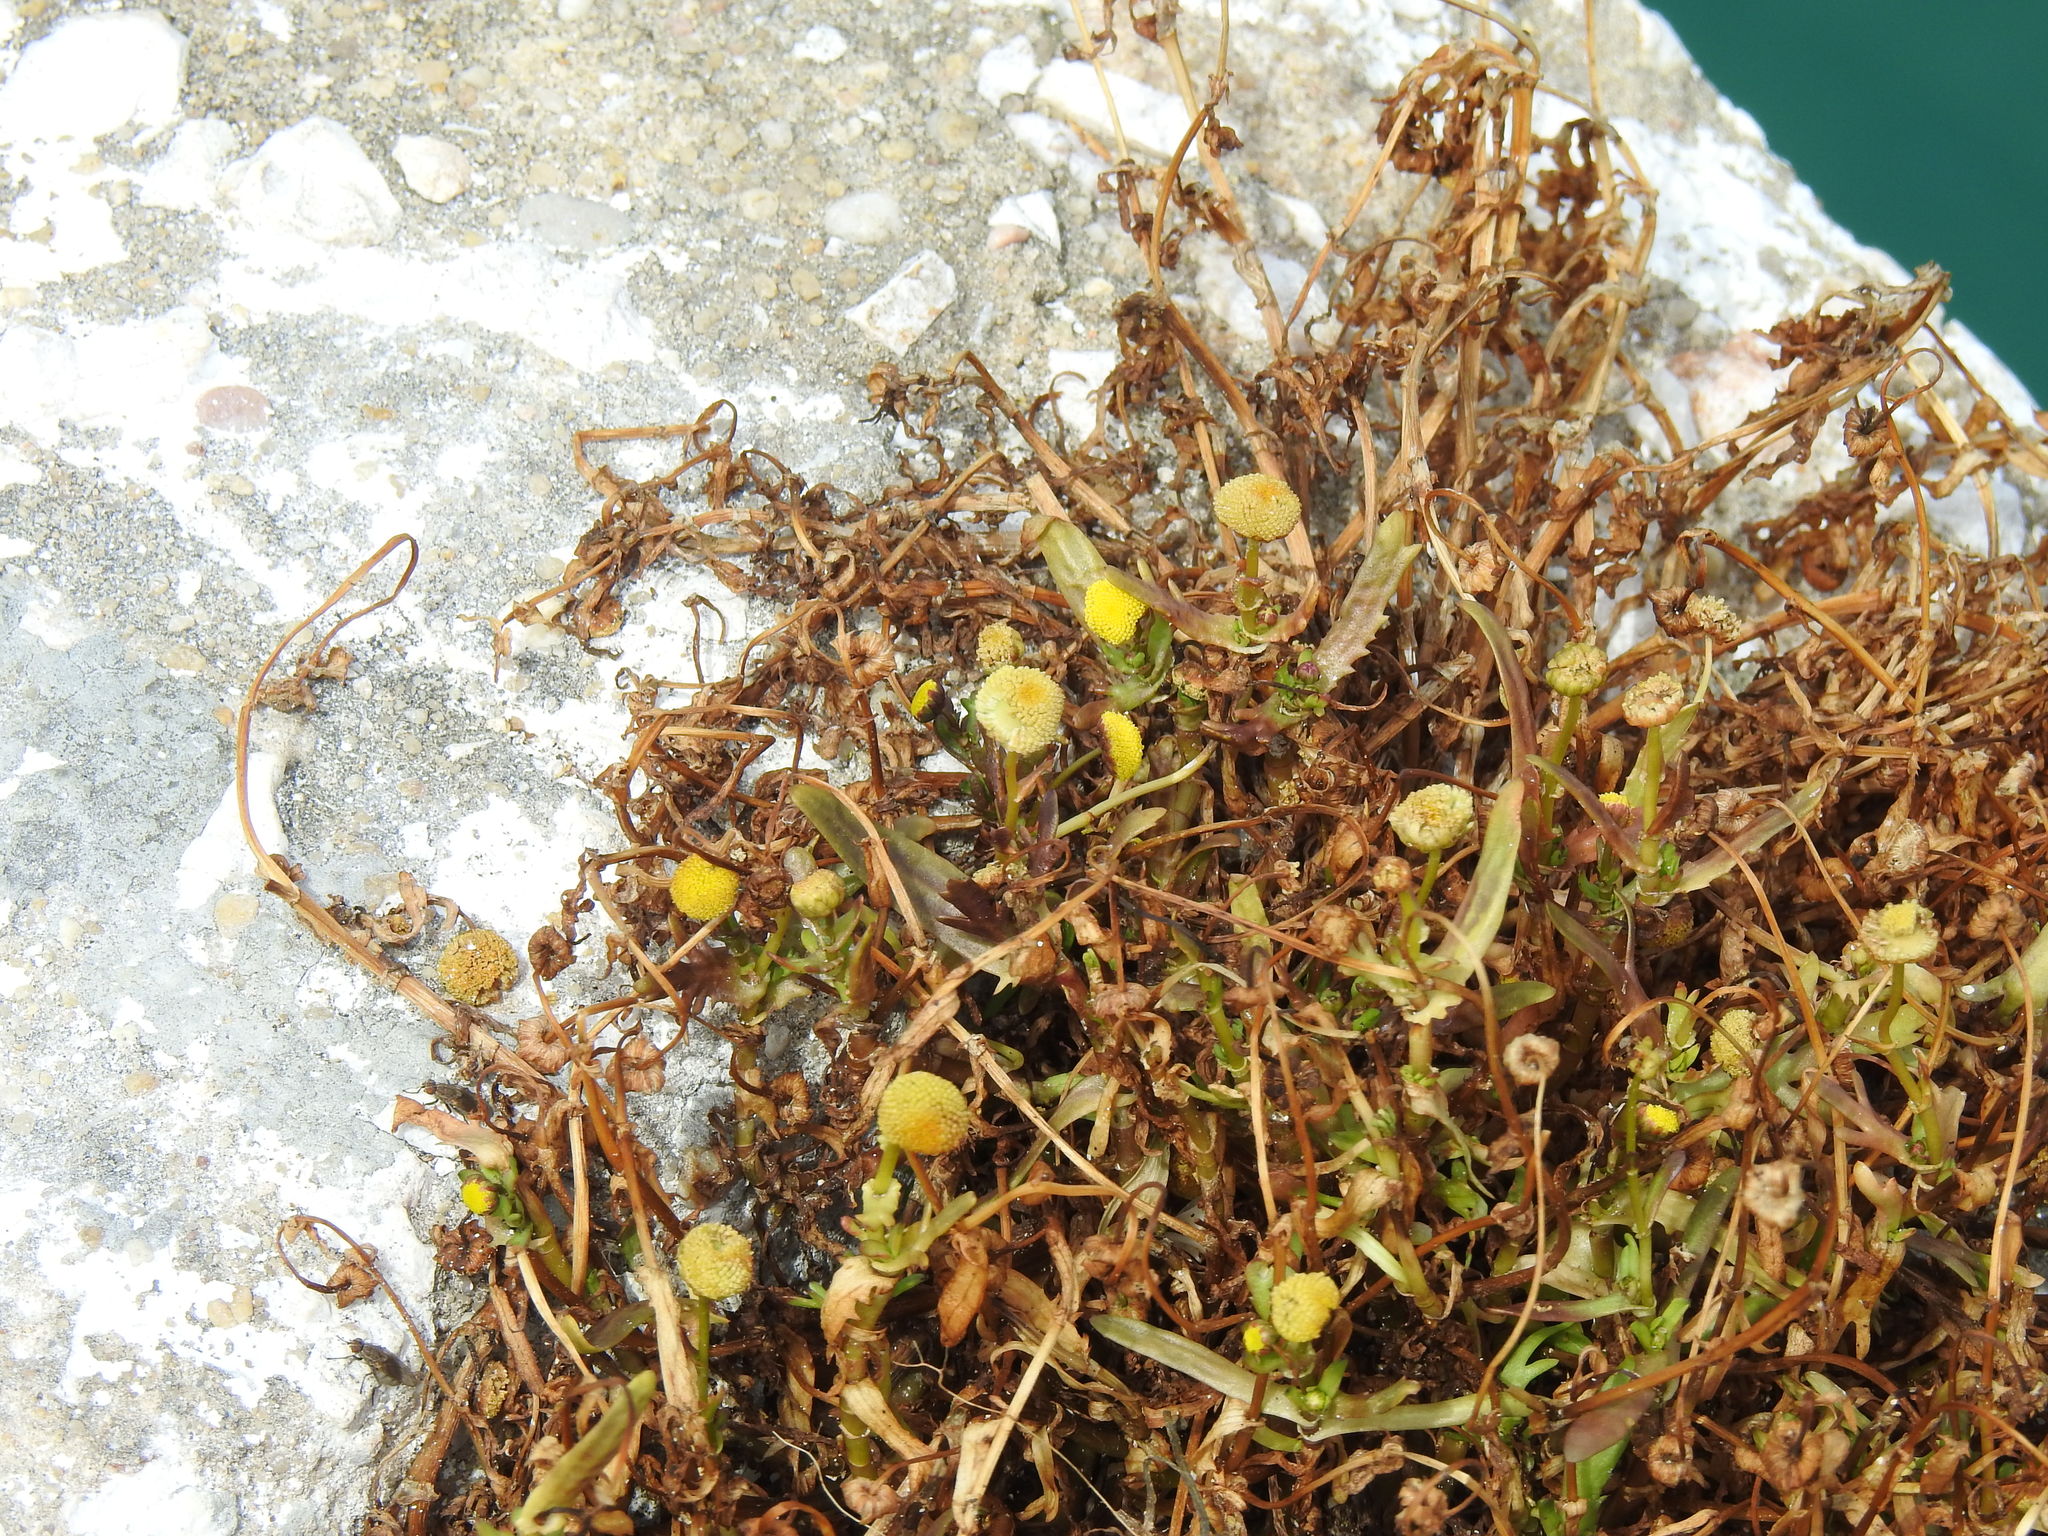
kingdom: Plantae
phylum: Tracheophyta
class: Magnoliopsida
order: Asterales
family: Asteraceae
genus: Cotula
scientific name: Cotula coronopifolia
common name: Buttonweed
